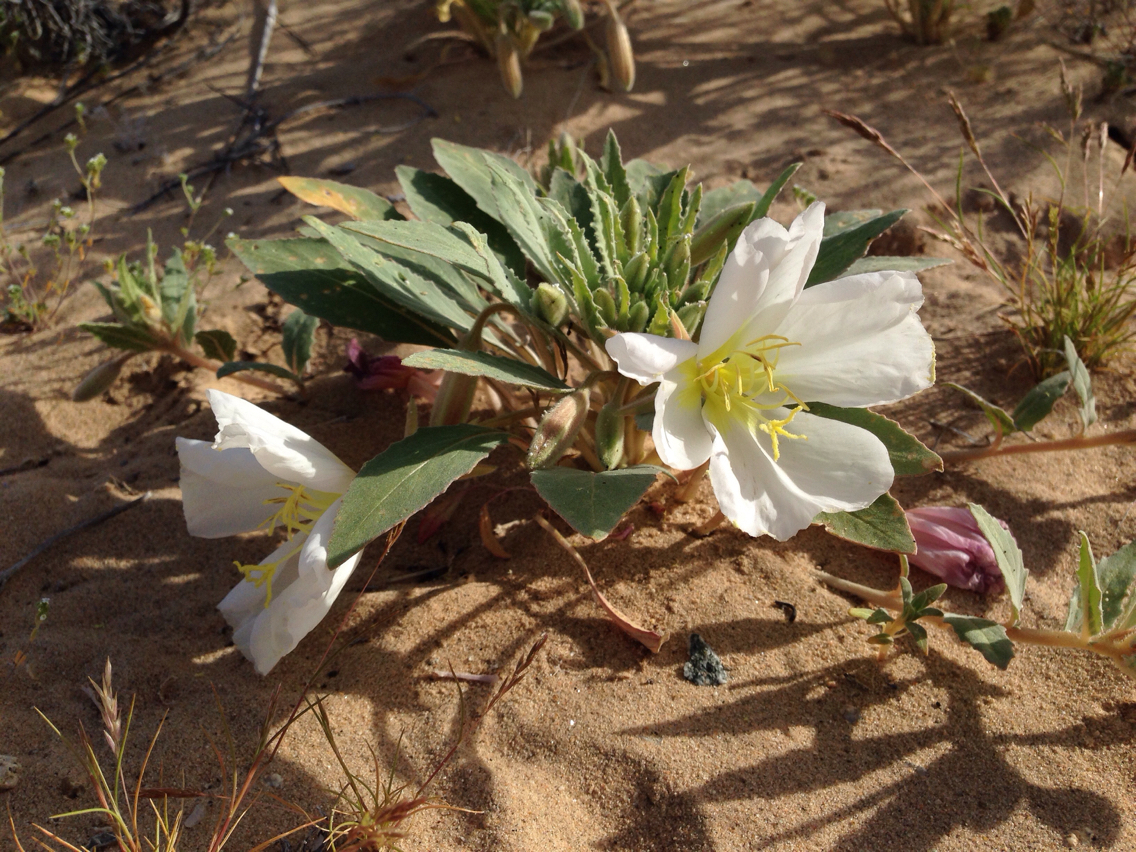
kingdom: Plantae
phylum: Tracheophyta
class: Magnoliopsida
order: Myrtales
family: Onagraceae
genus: Oenothera
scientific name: Oenothera deltoides
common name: Basket evening-primrose
